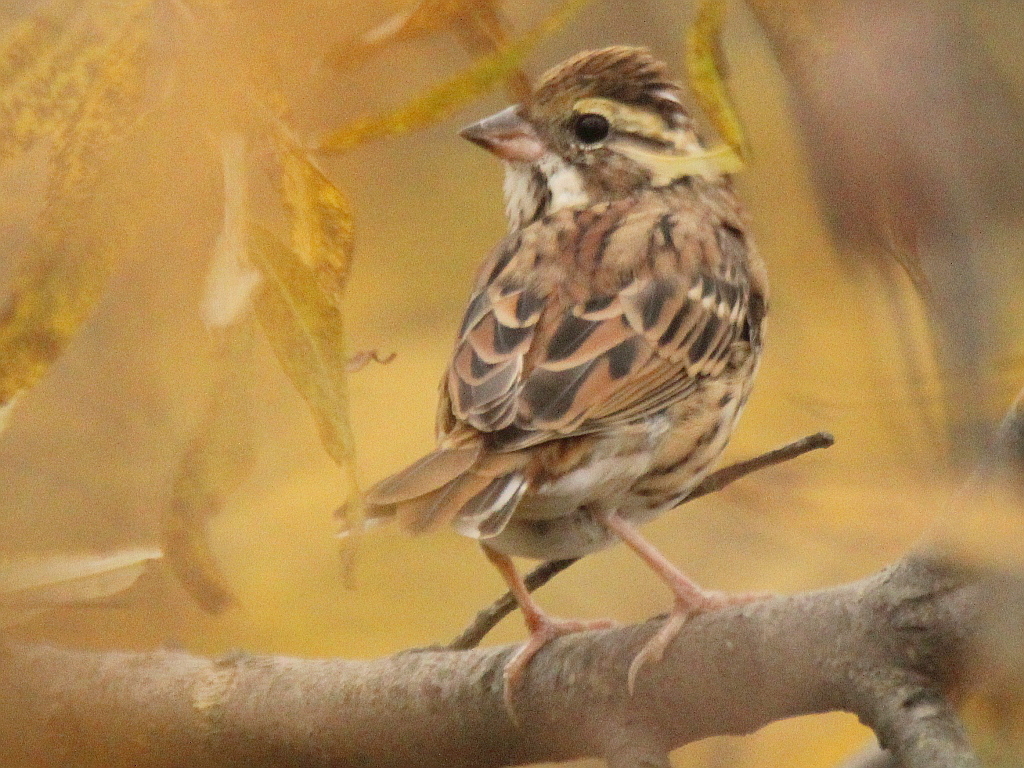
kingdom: Animalia
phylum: Chordata
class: Aves
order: Passeriformes
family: Emberizidae
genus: Emberiza
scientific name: Emberiza chrysophrys
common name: Yellow-browed bunting
